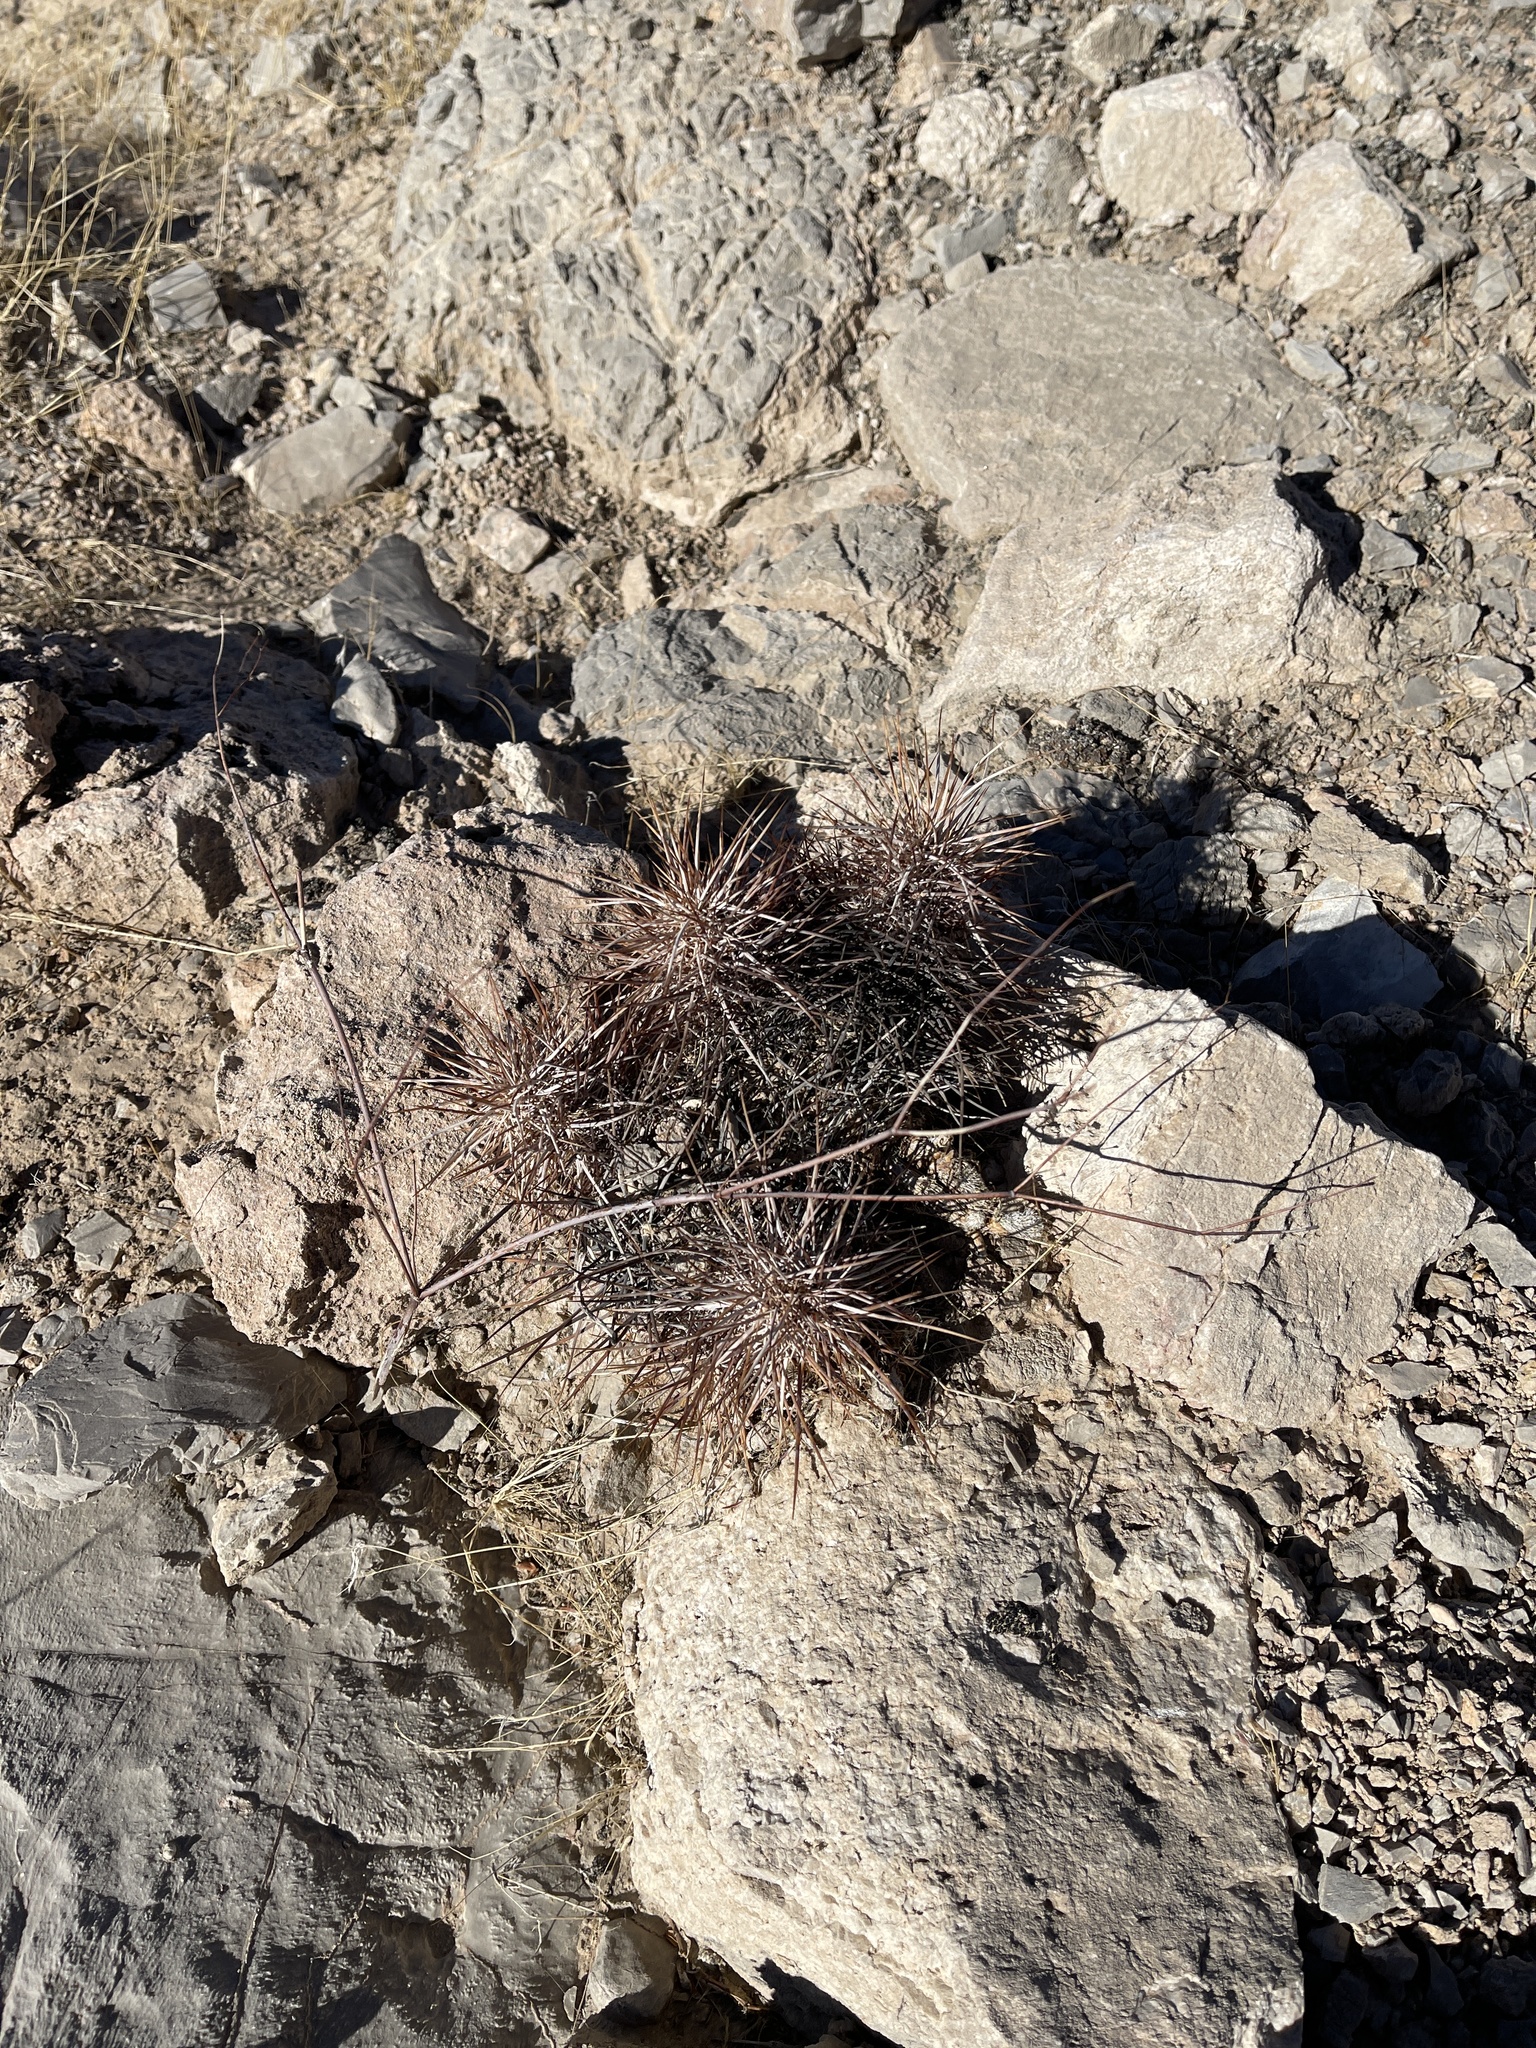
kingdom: Plantae
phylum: Tracheophyta
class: Magnoliopsida
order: Caryophyllales
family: Cactaceae
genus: Echinocereus
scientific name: Echinocereus engelmannii
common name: Engelmann's hedgehog cactus
